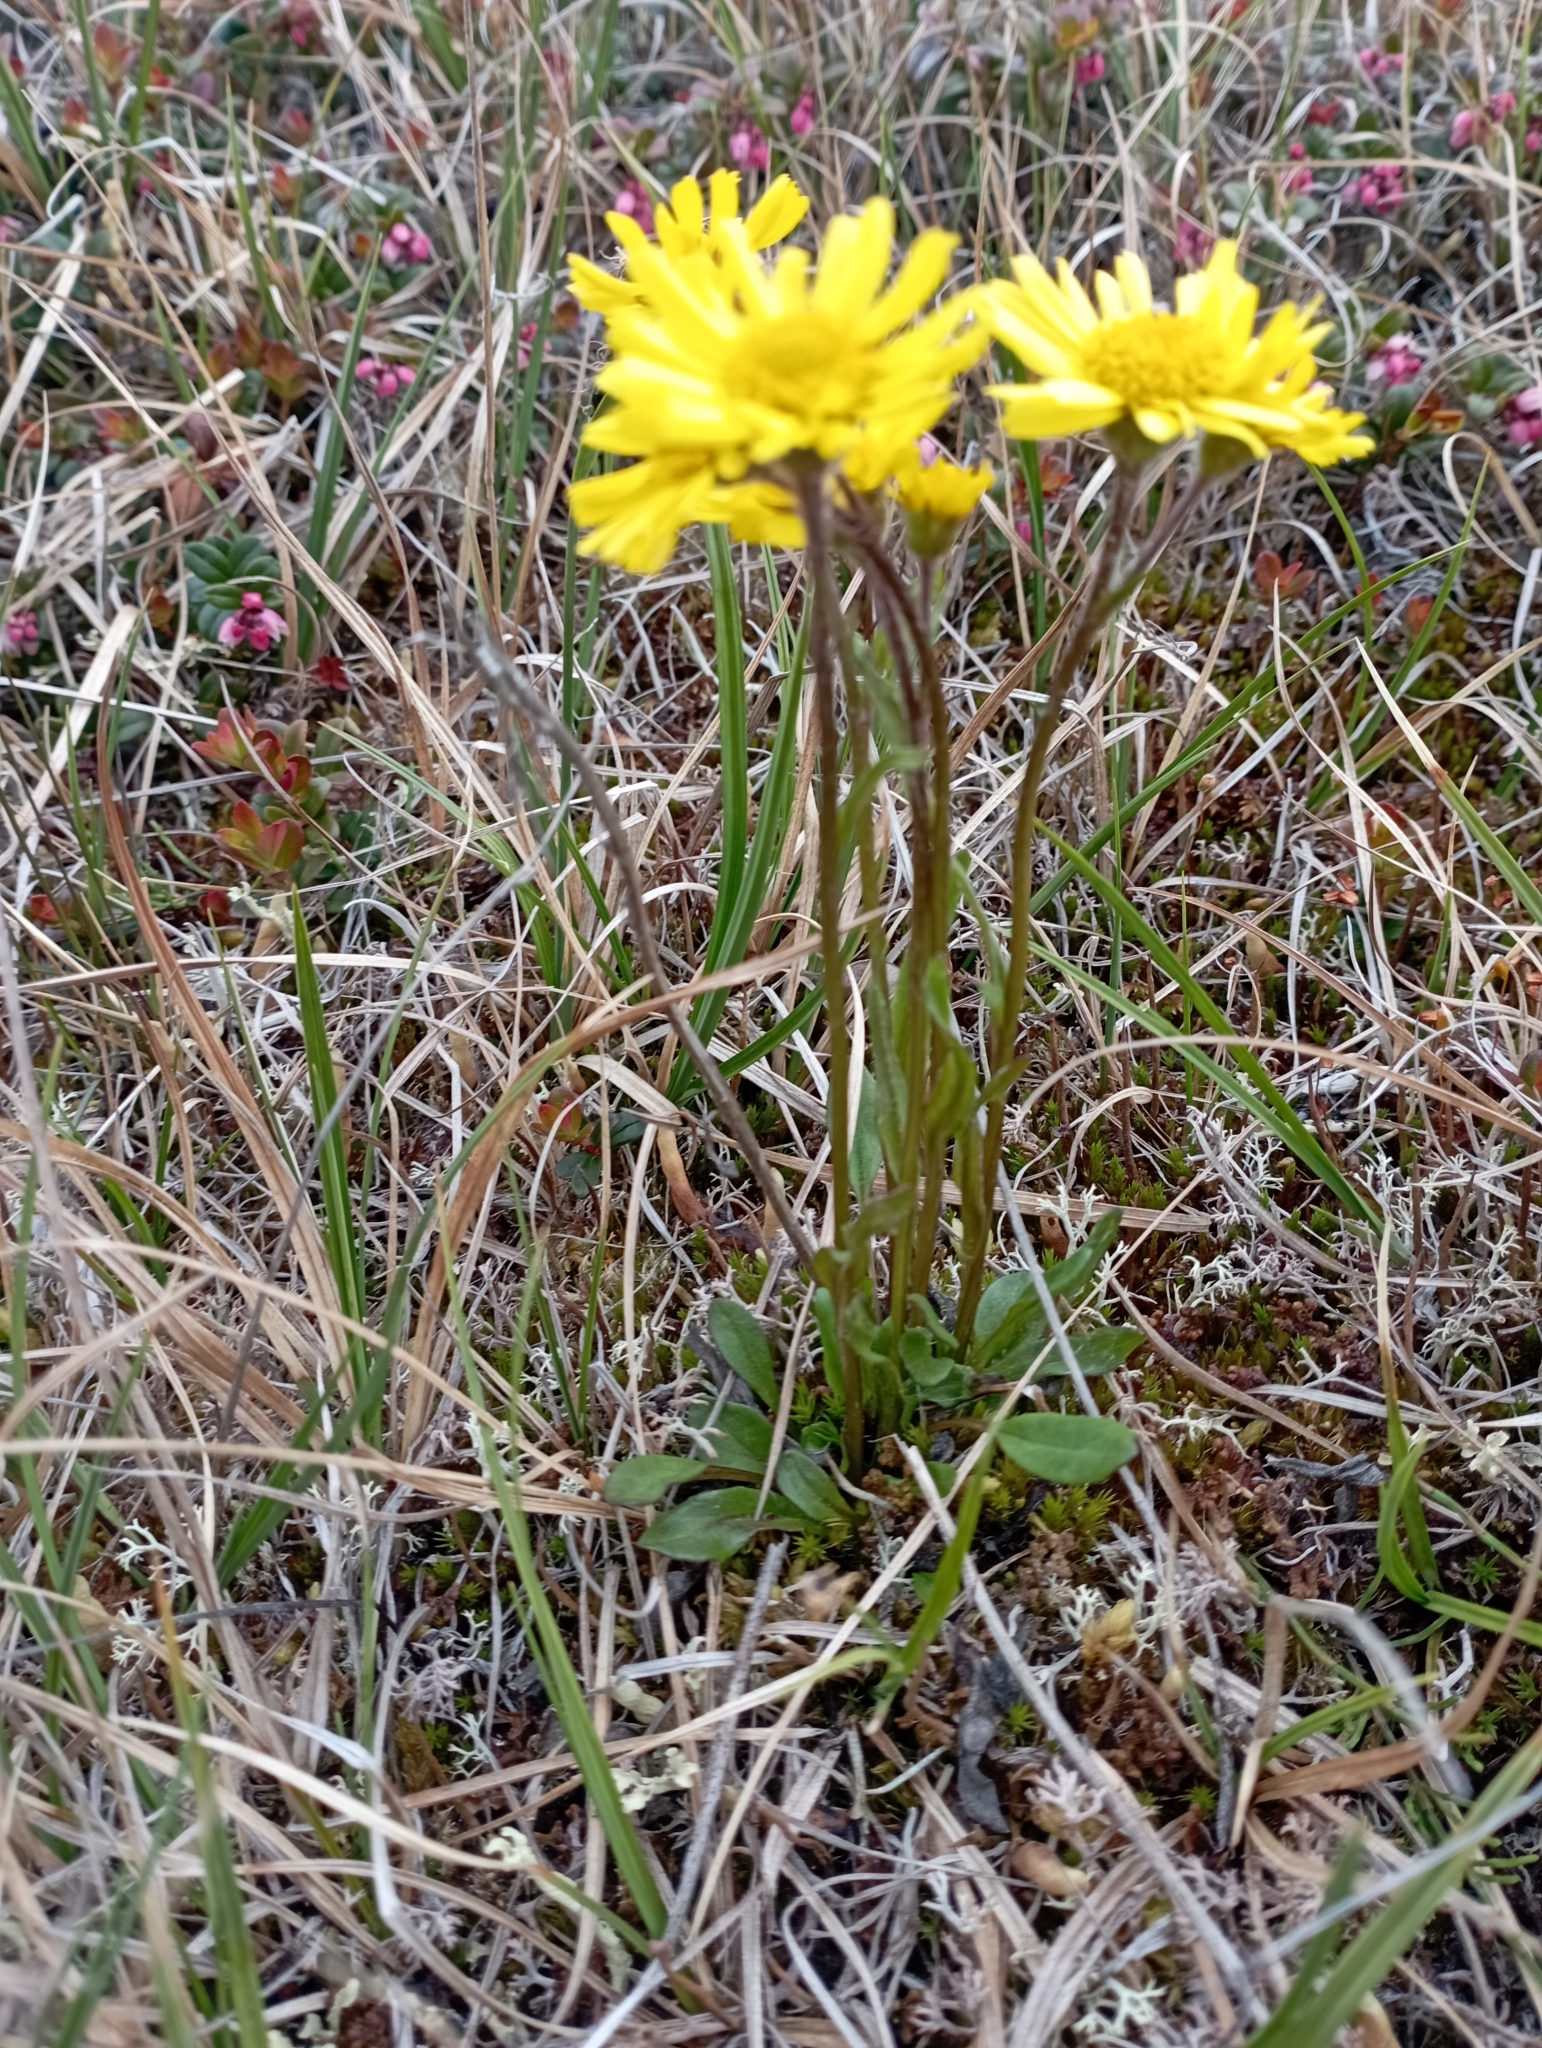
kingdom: Plantae
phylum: Tracheophyta
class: Magnoliopsida
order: Asterales
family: Asteraceae
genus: Tephroseris
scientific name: Tephroseris integrifolia
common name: Field fleawort
